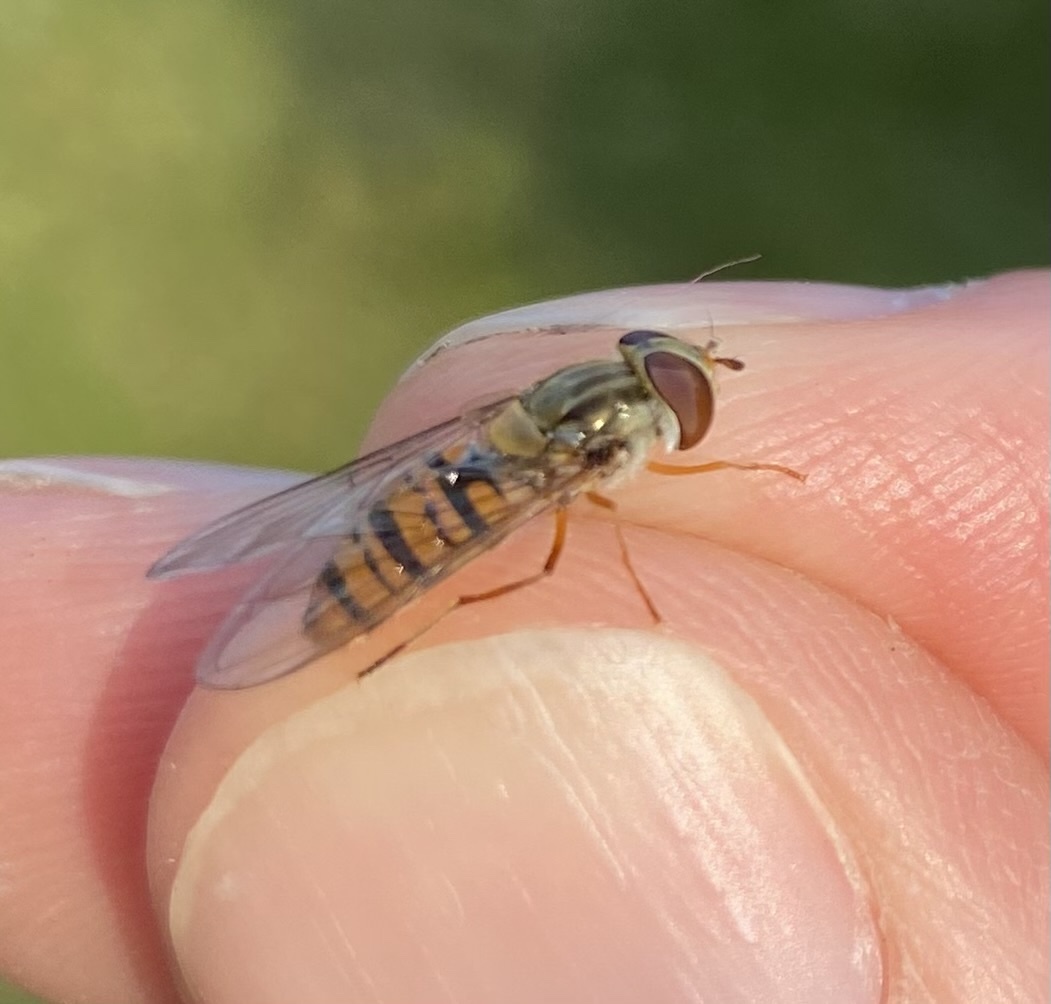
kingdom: Animalia
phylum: Arthropoda
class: Insecta
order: Diptera
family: Syrphidae
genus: Episyrphus
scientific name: Episyrphus balteatus
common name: Marmalade hoverfly
